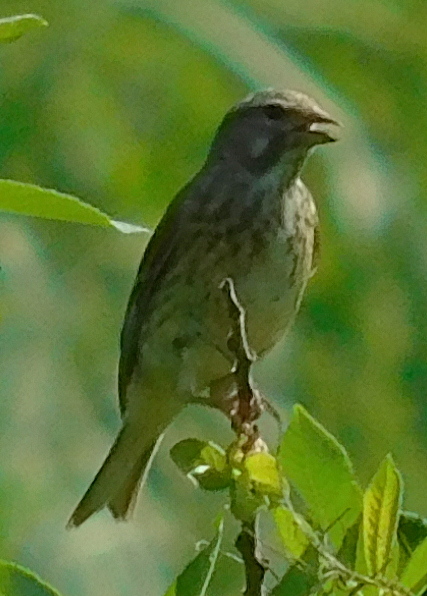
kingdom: Animalia
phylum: Chordata
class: Aves
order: Passeriformes
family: Fringillidae
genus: Linaria
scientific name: Linaria cannabina
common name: Common linnet
